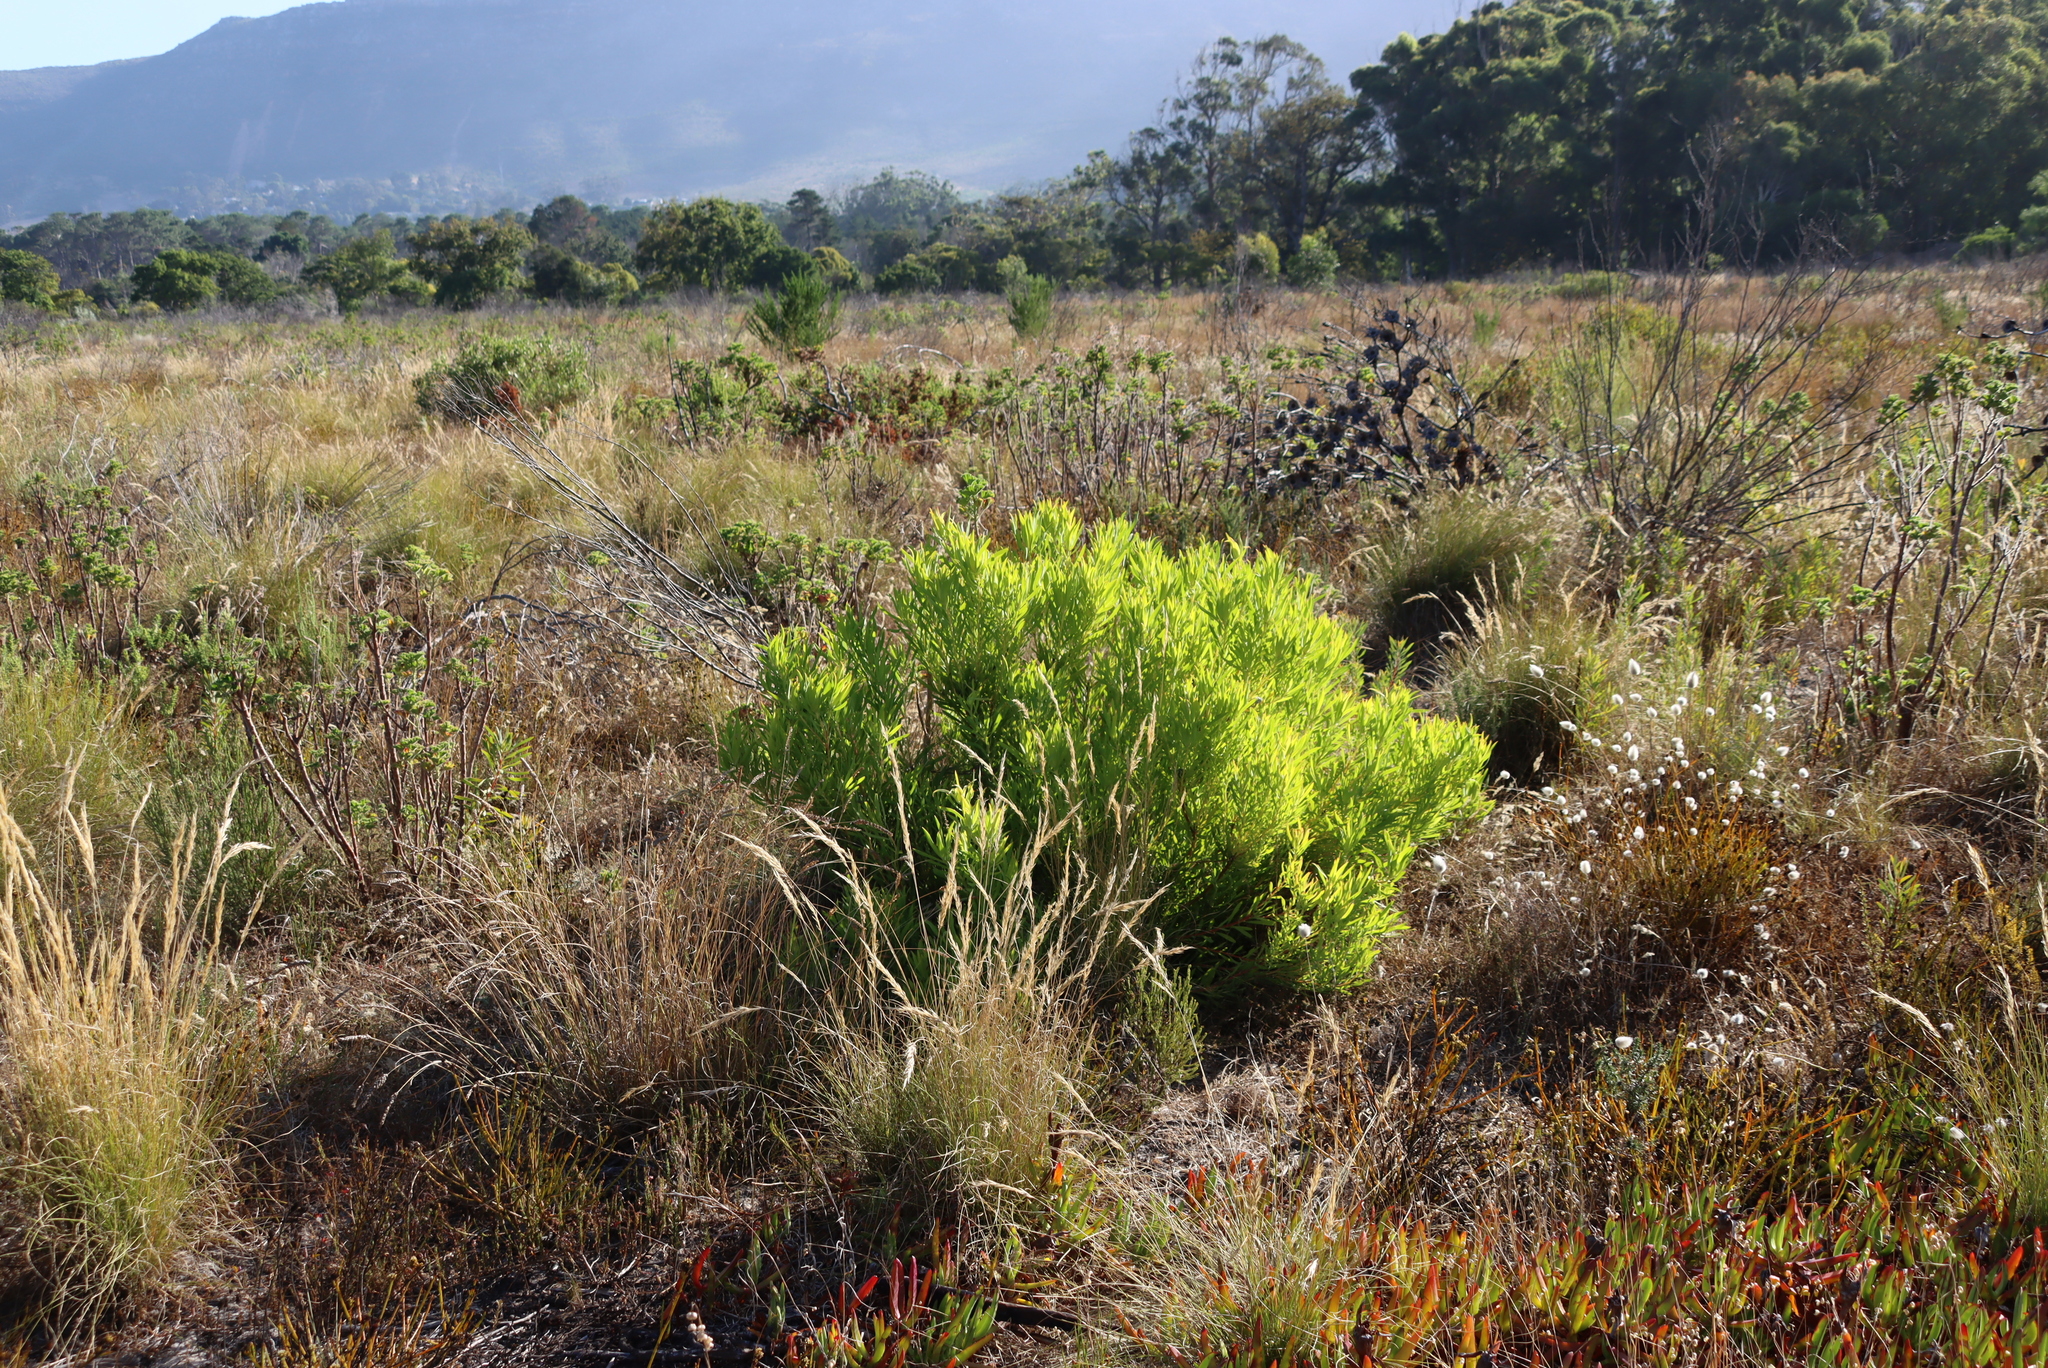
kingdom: Plantae
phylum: Tracheophyta
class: Magnoliopsida
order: Fabales
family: Fabaceae
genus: Acacia
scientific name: Acacia saligna
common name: Orange wattle
